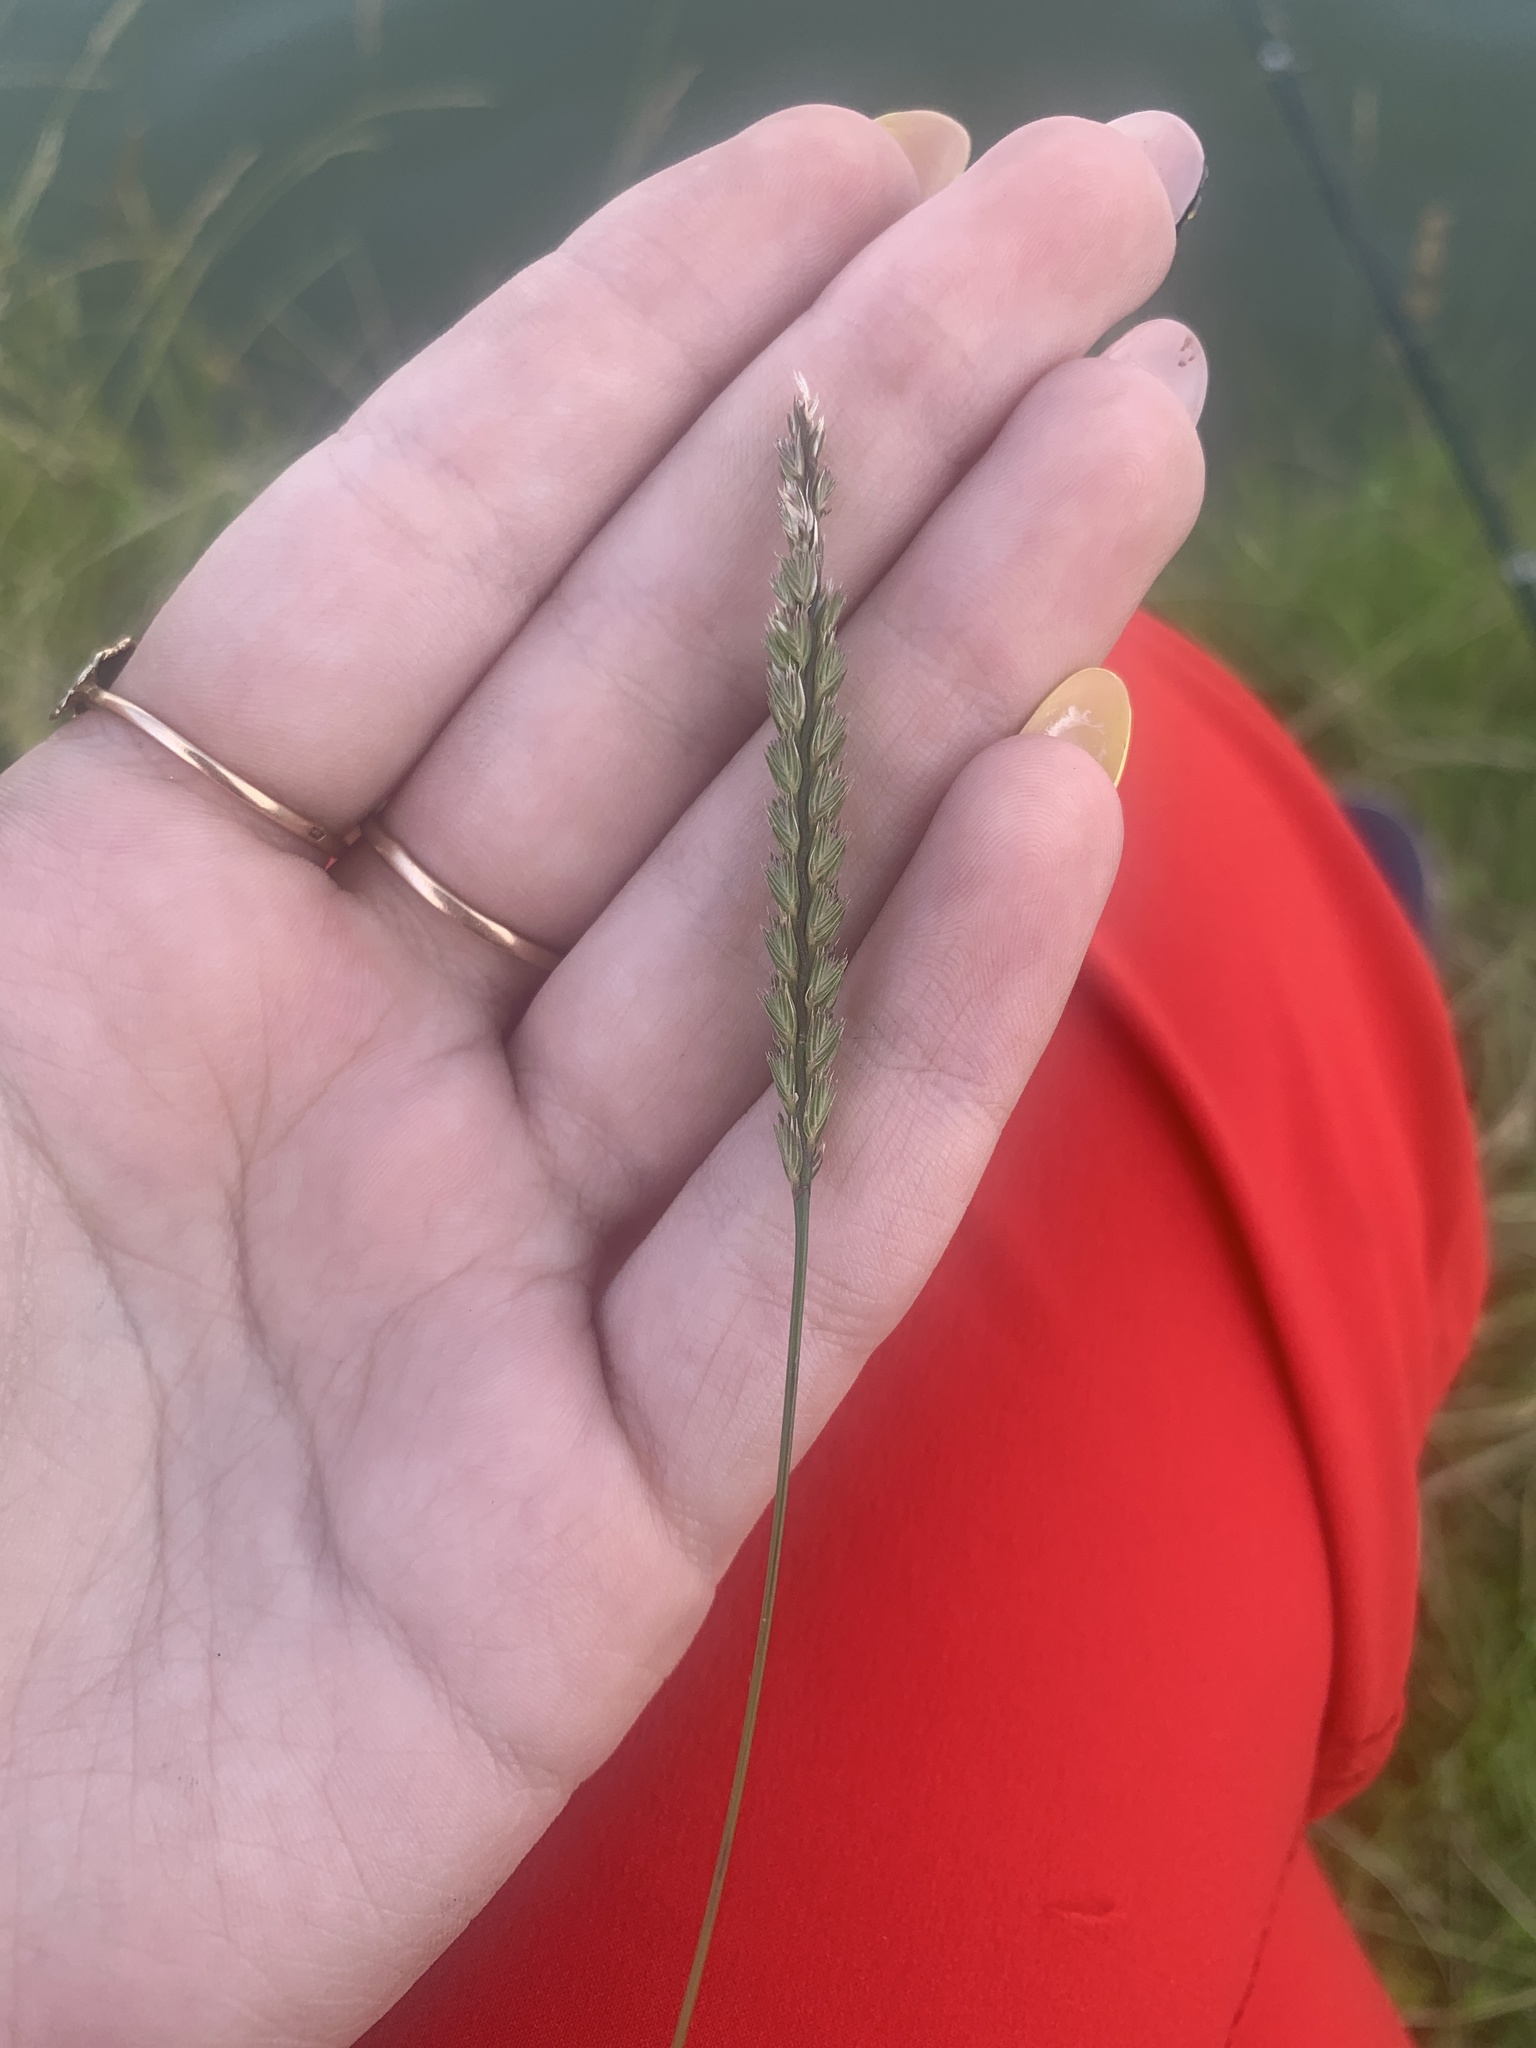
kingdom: Plantae
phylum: Tracheophyta
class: Liliopsida
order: Poales
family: Poaceae
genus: Cynosurus
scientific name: Cynosurus cristatus
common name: Crested dog's-tail
